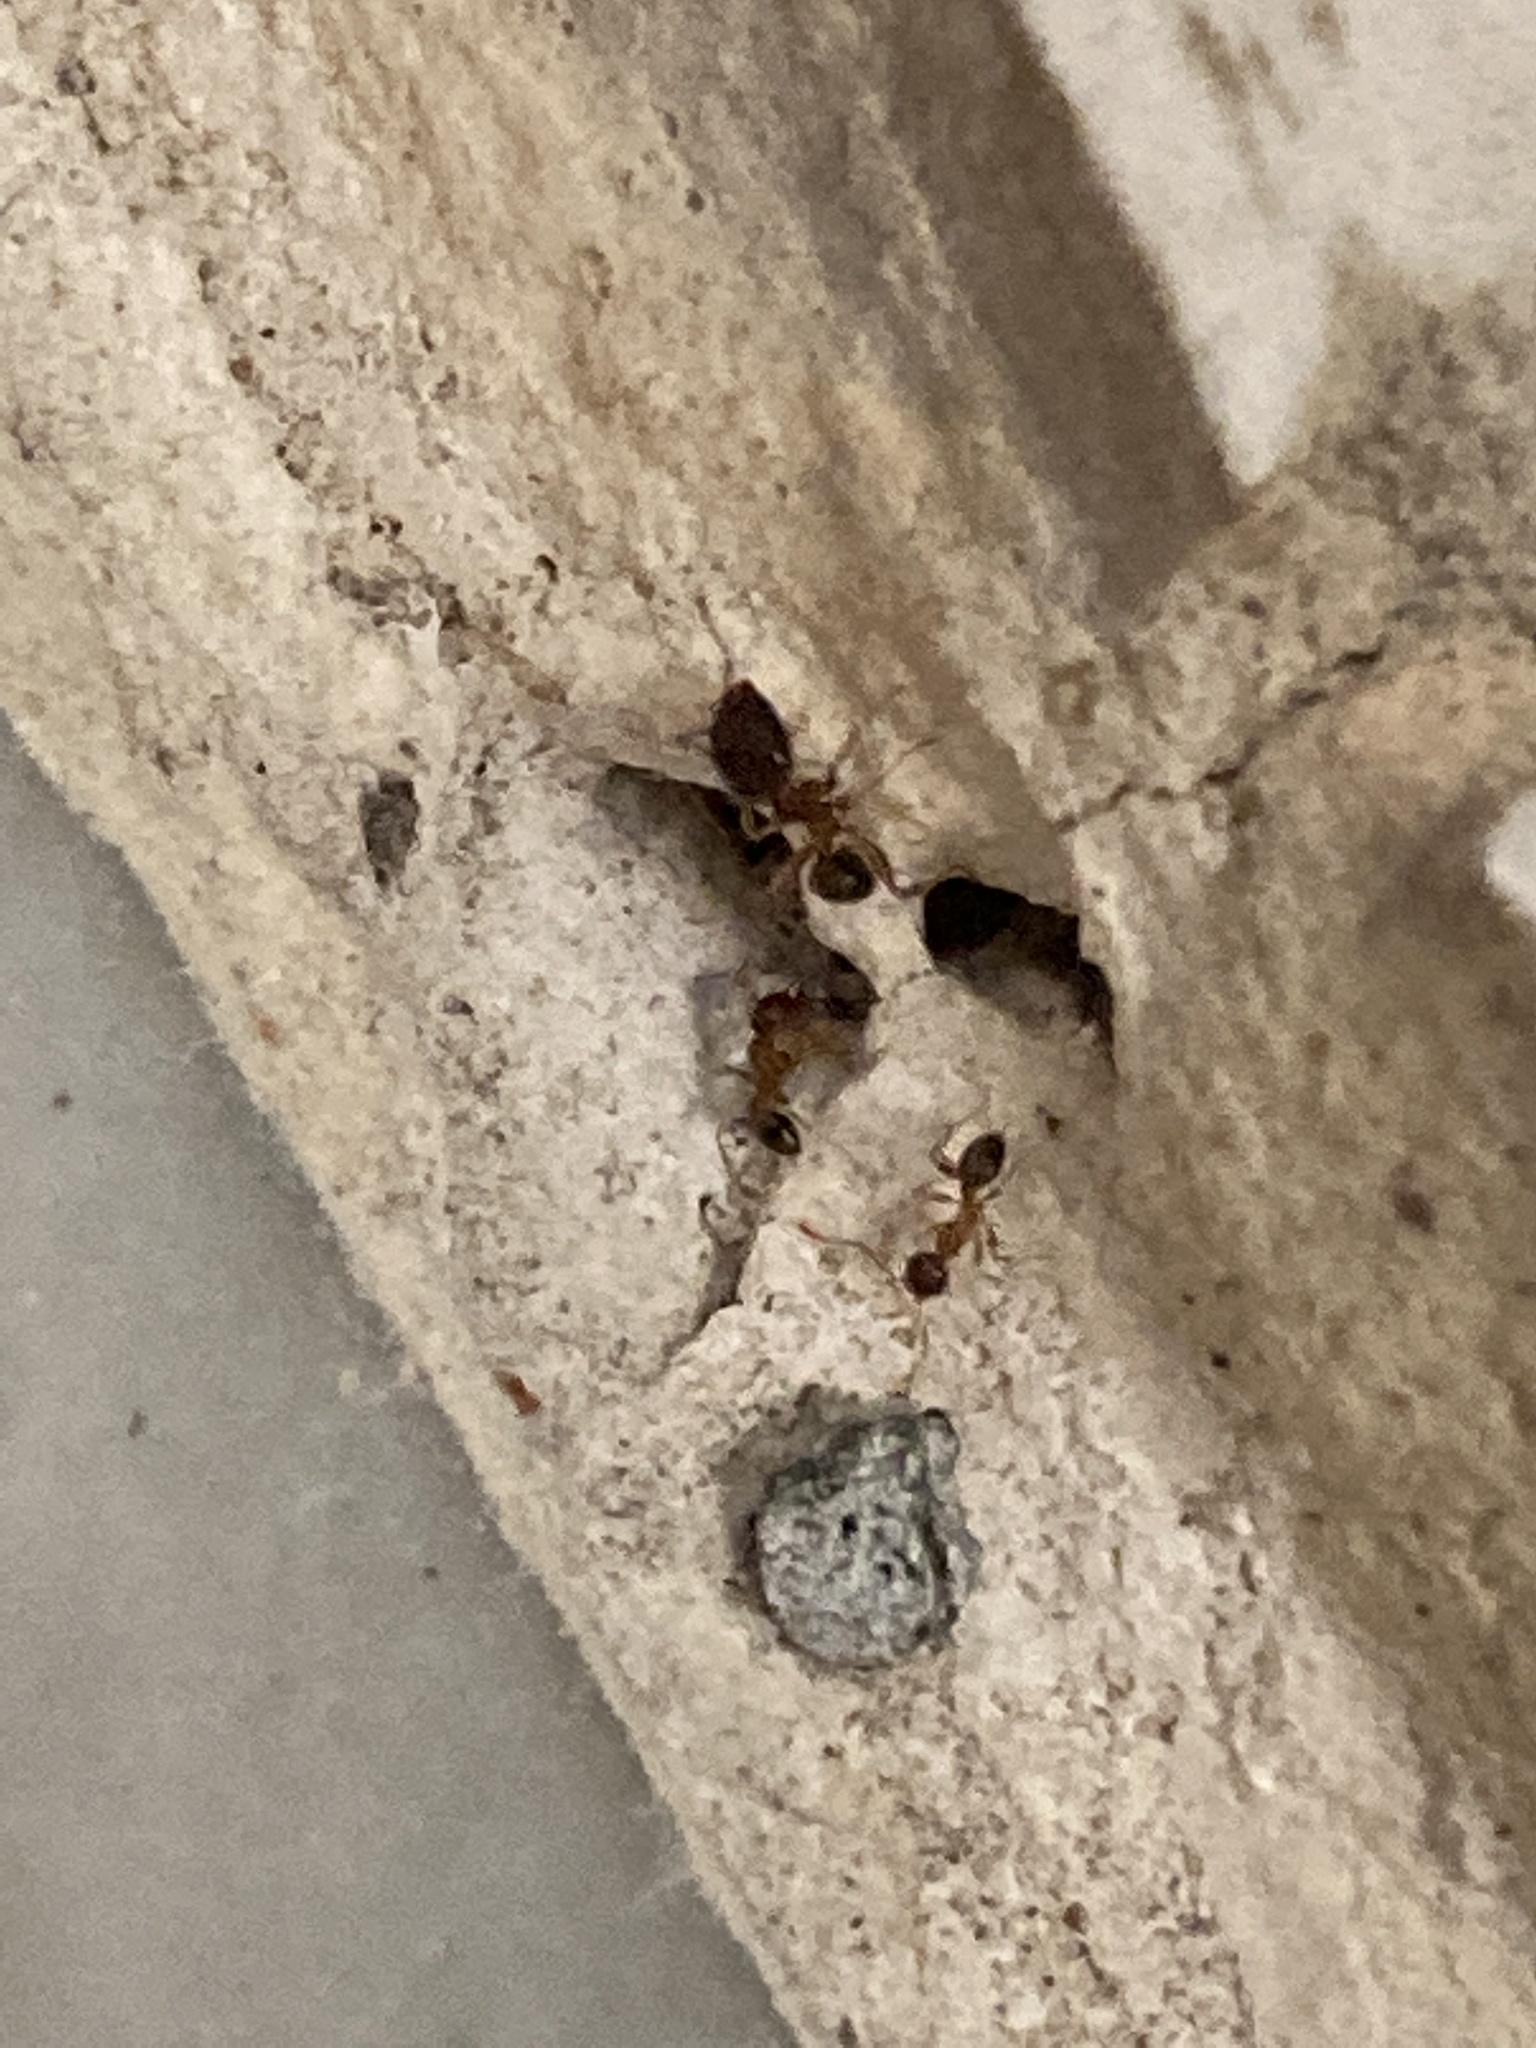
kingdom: Animalia
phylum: Arthropoda
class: Insecta
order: Hymenoptera
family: Formicidae
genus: Pheidole
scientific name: Pheidole megacephala
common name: Bigheaded ant
